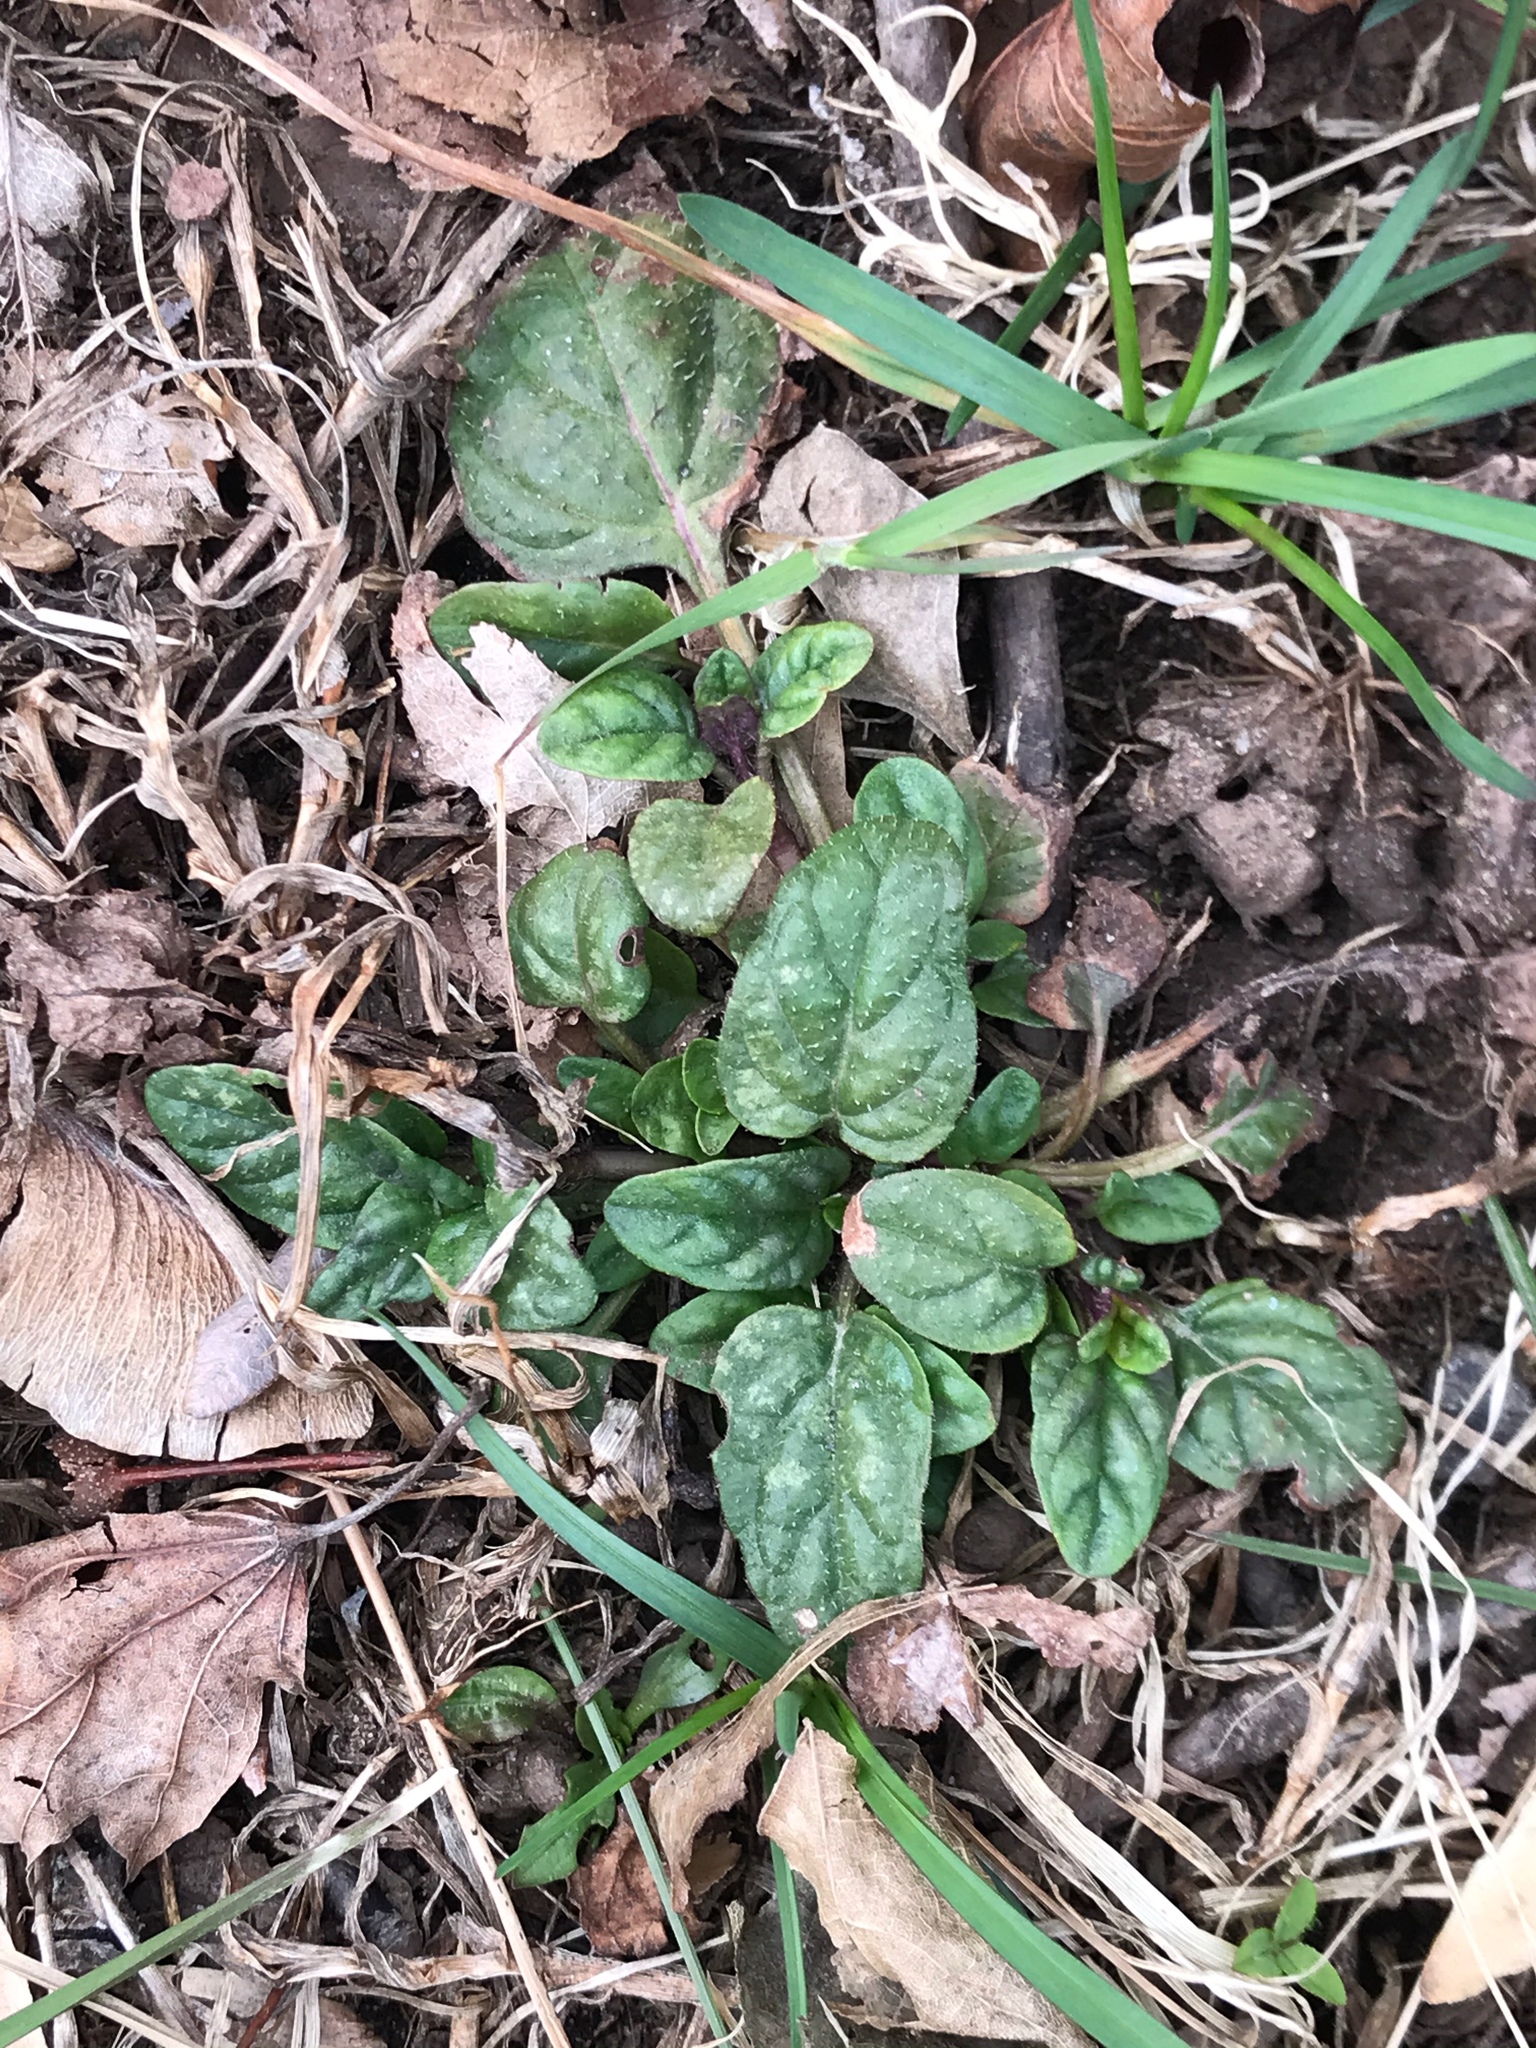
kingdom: Plantae
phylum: Tracheophyta
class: Magnoliopsida
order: Lamiales
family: Lamiaceae
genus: Prunella
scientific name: Prunella vulgaris
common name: Heal-all
